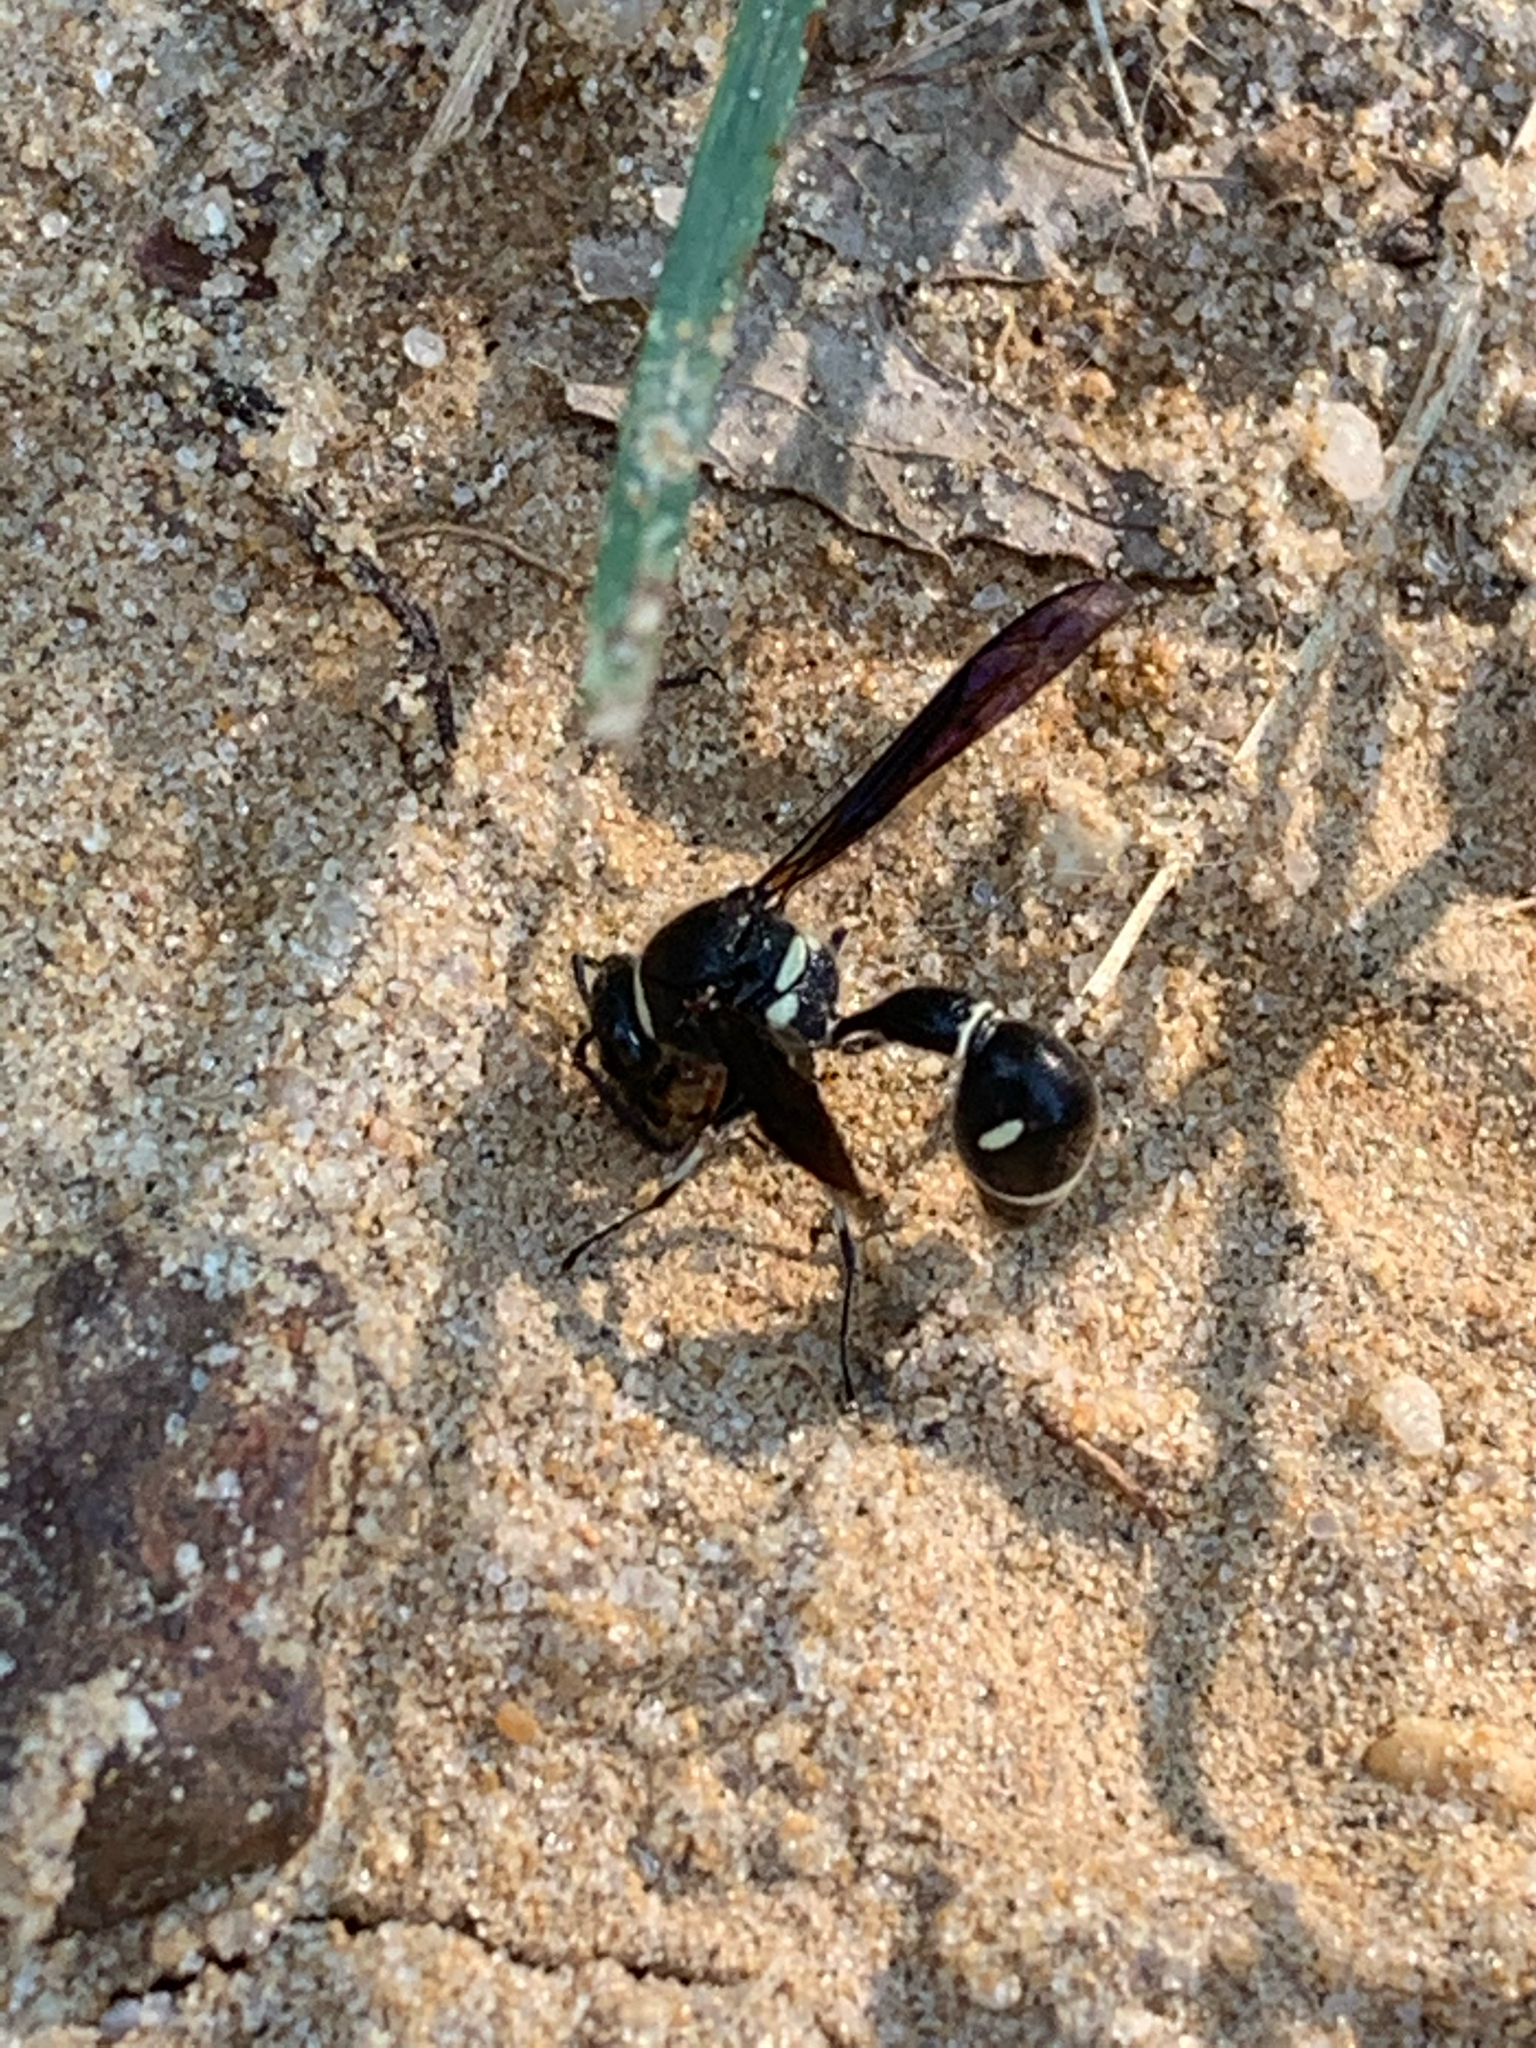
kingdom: Animalia
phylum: Arthropoda
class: Insecta
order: Hymenoptera
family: Vespidae
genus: Eumenes
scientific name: Eumenes fraternus
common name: Fraternal potter wasp
